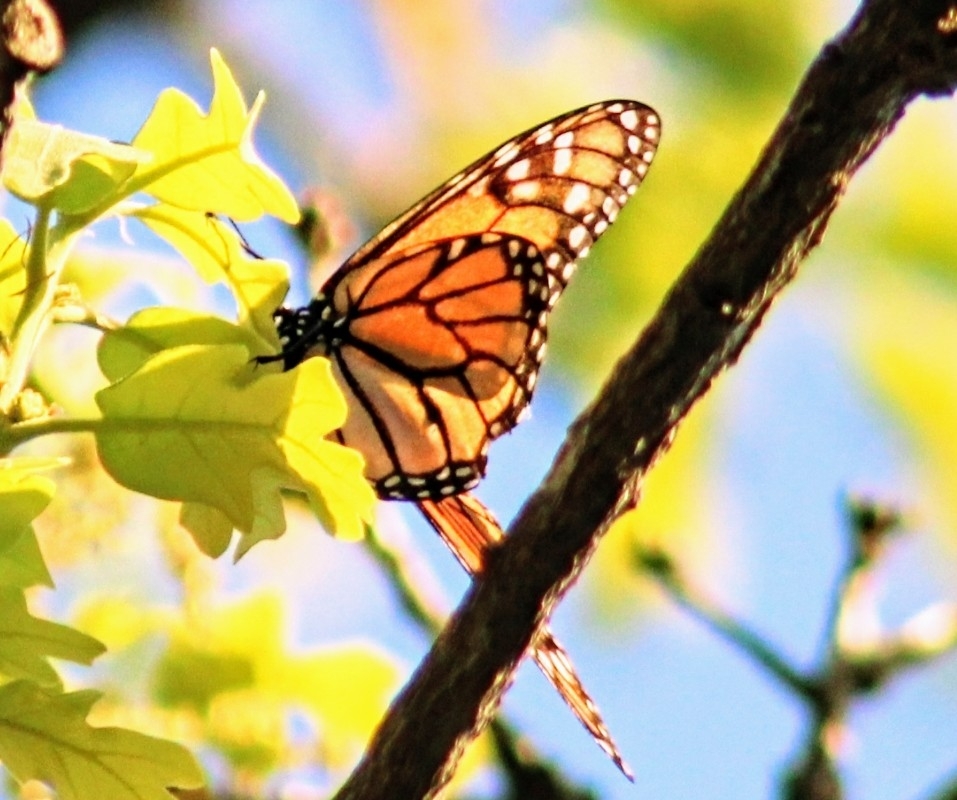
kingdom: Animalia
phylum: Arthropoda
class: Insecta
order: Lepidoptera
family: Nymphalidae
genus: Danaus
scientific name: Danaus plexippus
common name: Monarch
